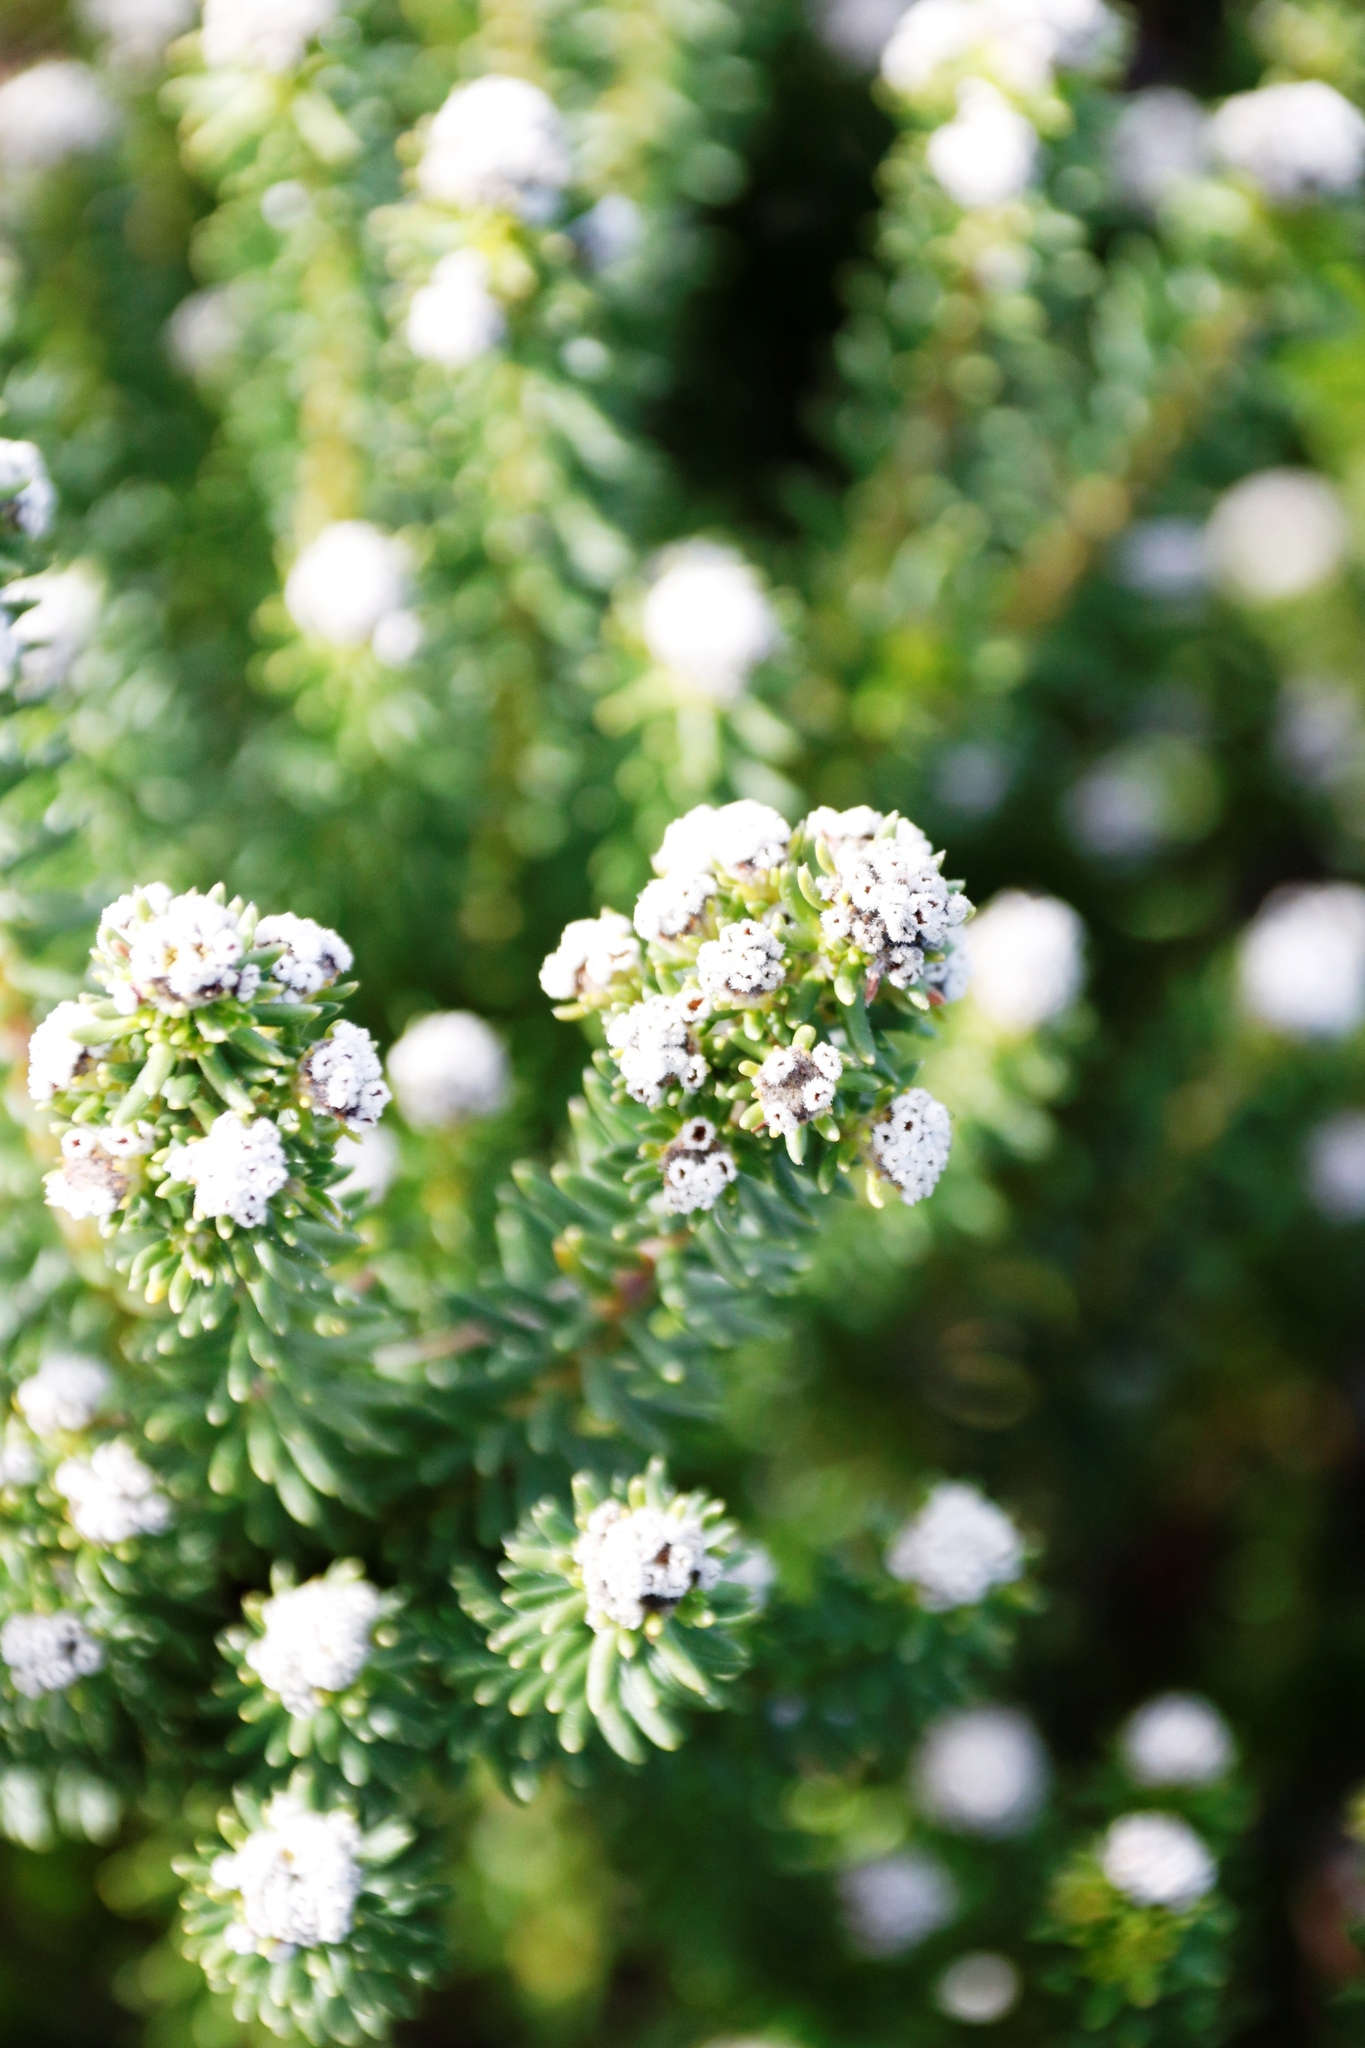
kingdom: Plantae
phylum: Tracheophyta
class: Magnoliopsida
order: Rosales
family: Rhamnaceae
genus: Phylica
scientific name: Phylica ericoides
